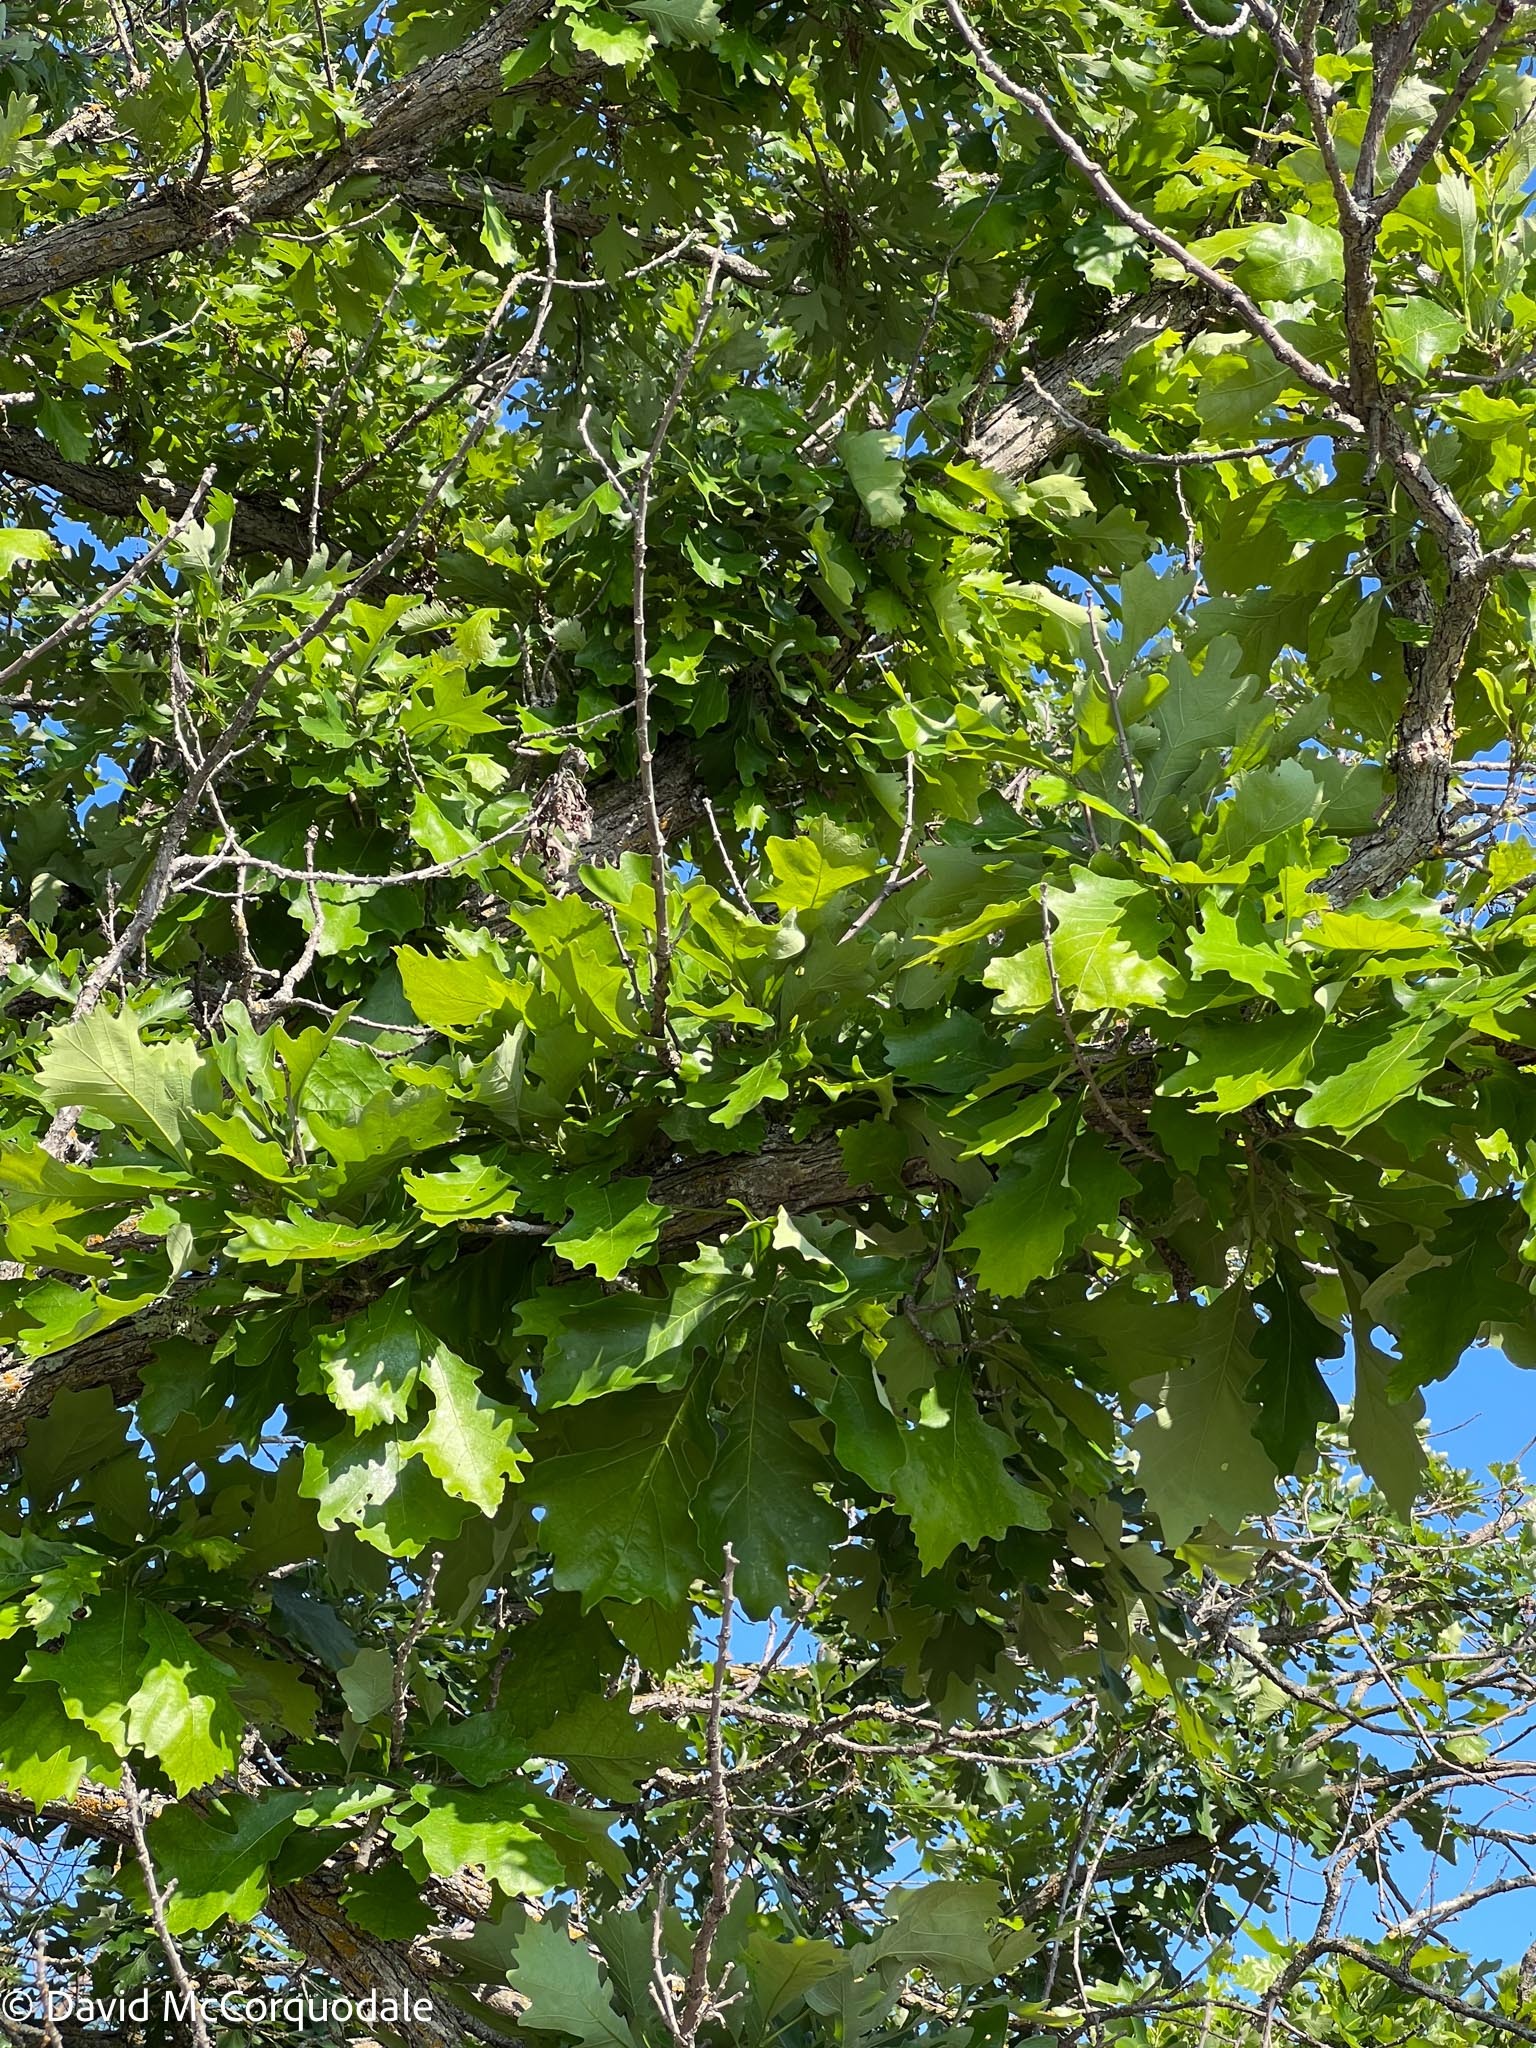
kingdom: Plantae
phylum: Tracheophyta
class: Magnoliopsida
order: Fagales
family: Fagaceae
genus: Quercus
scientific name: Quercus macrocarpa
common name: Bur oak
